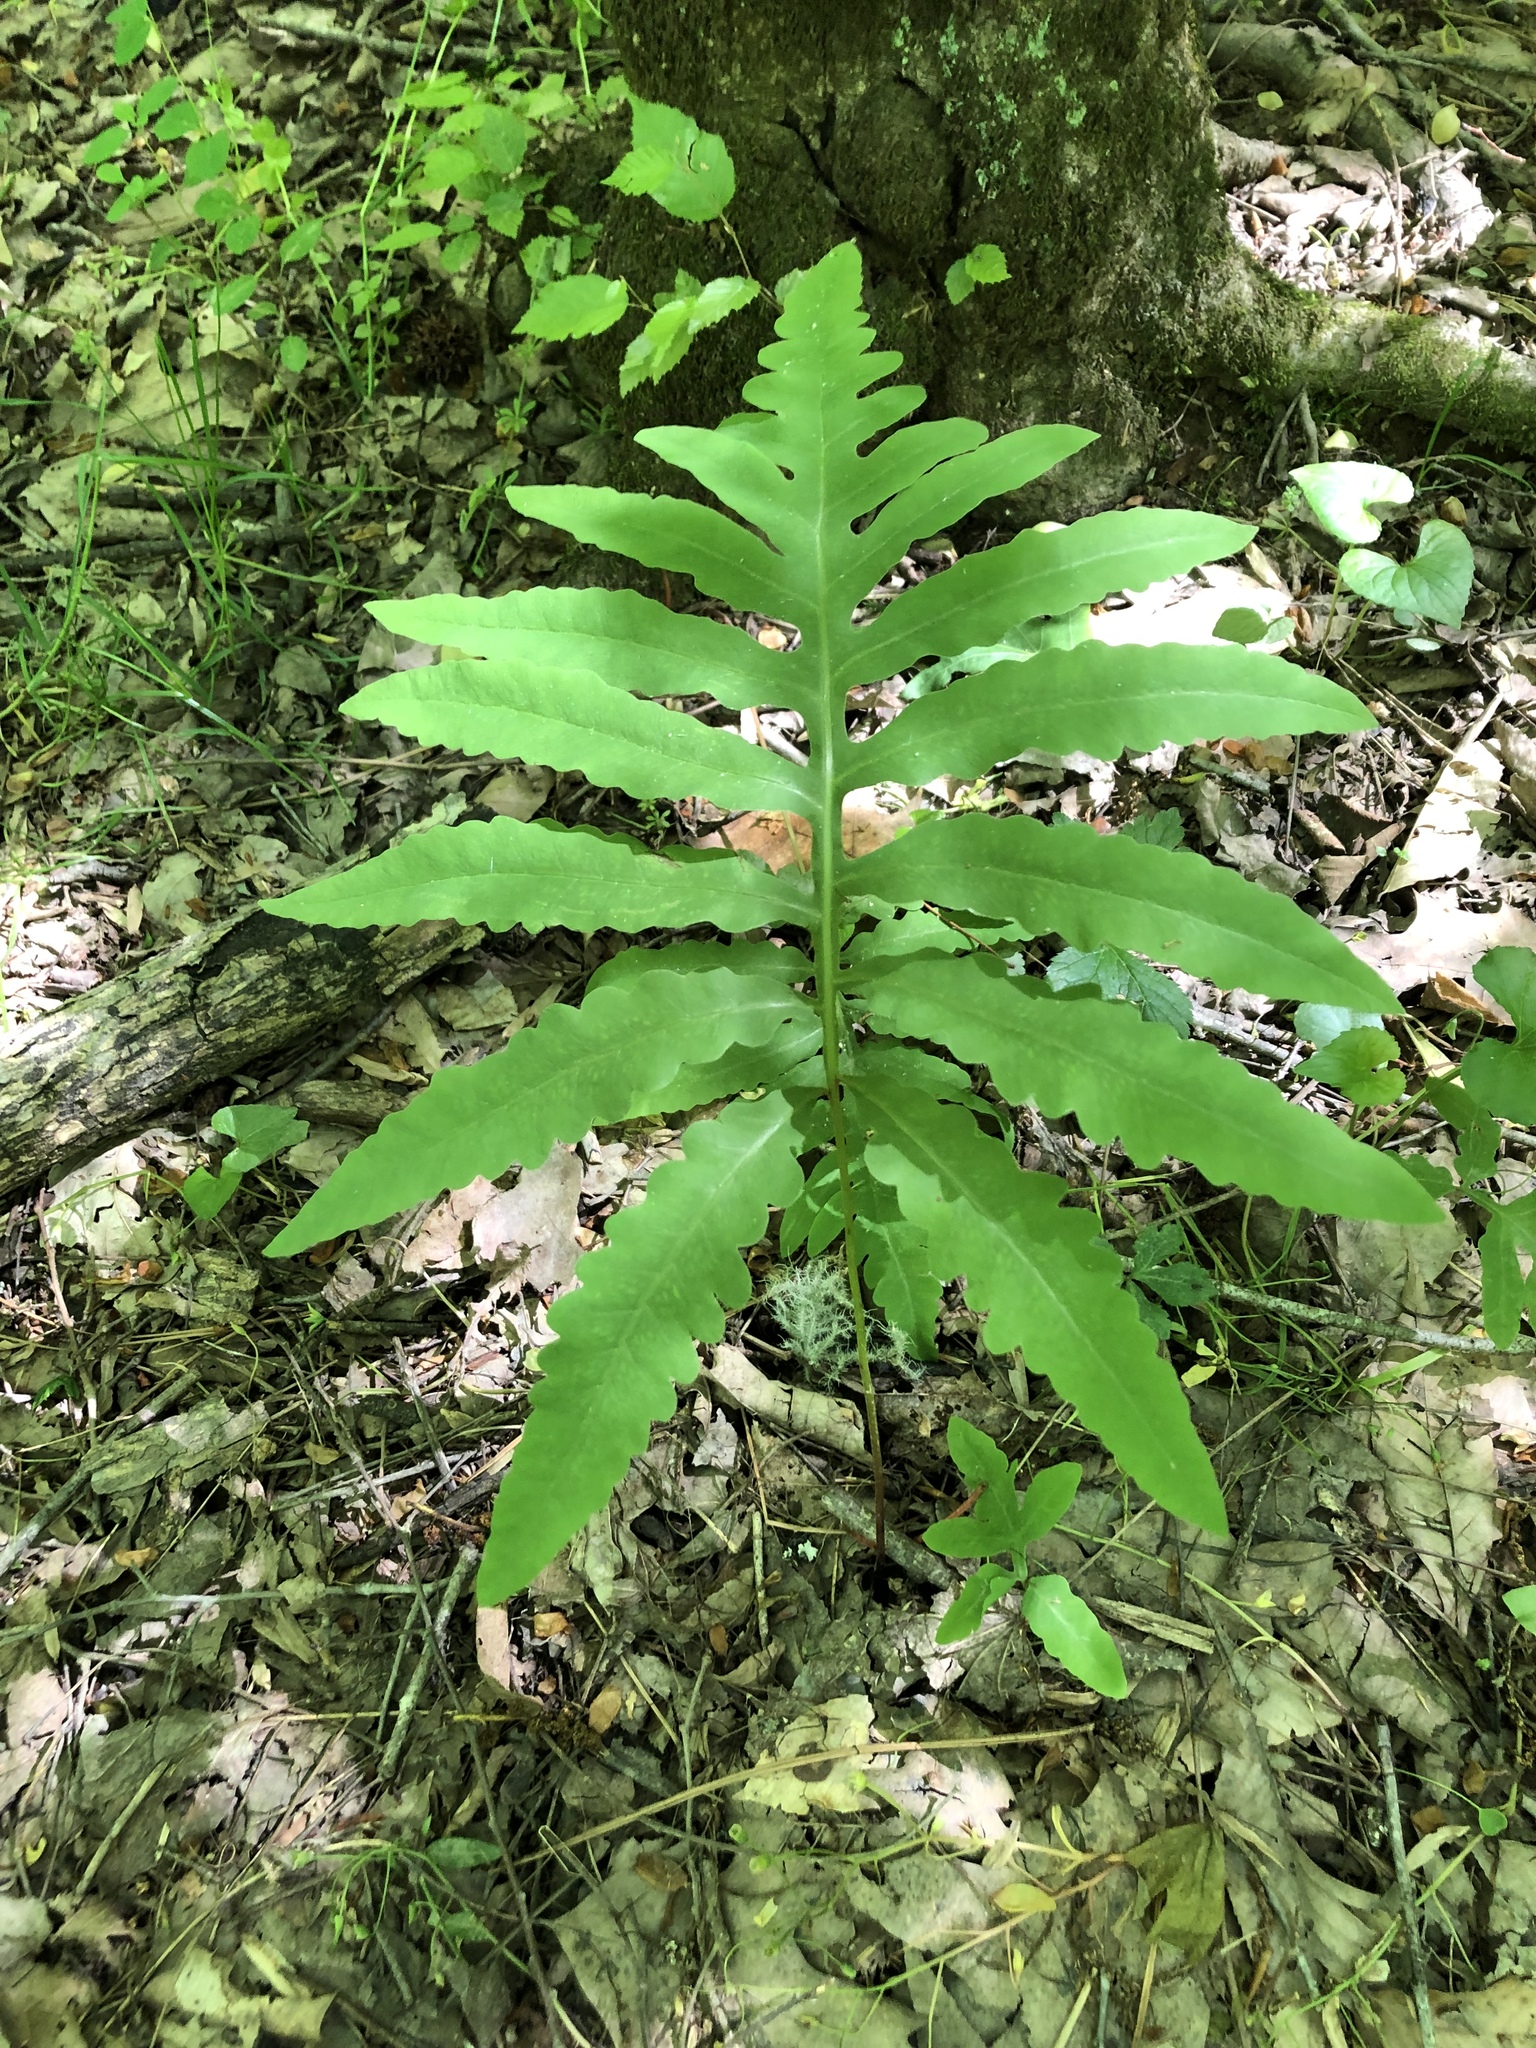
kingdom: Plantae
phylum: Tracheophyta
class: Polypodiopsida
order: Polypodiales
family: Onocleaceae
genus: Onoclea
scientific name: Onoclea sensibilis
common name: Sensitive fern
